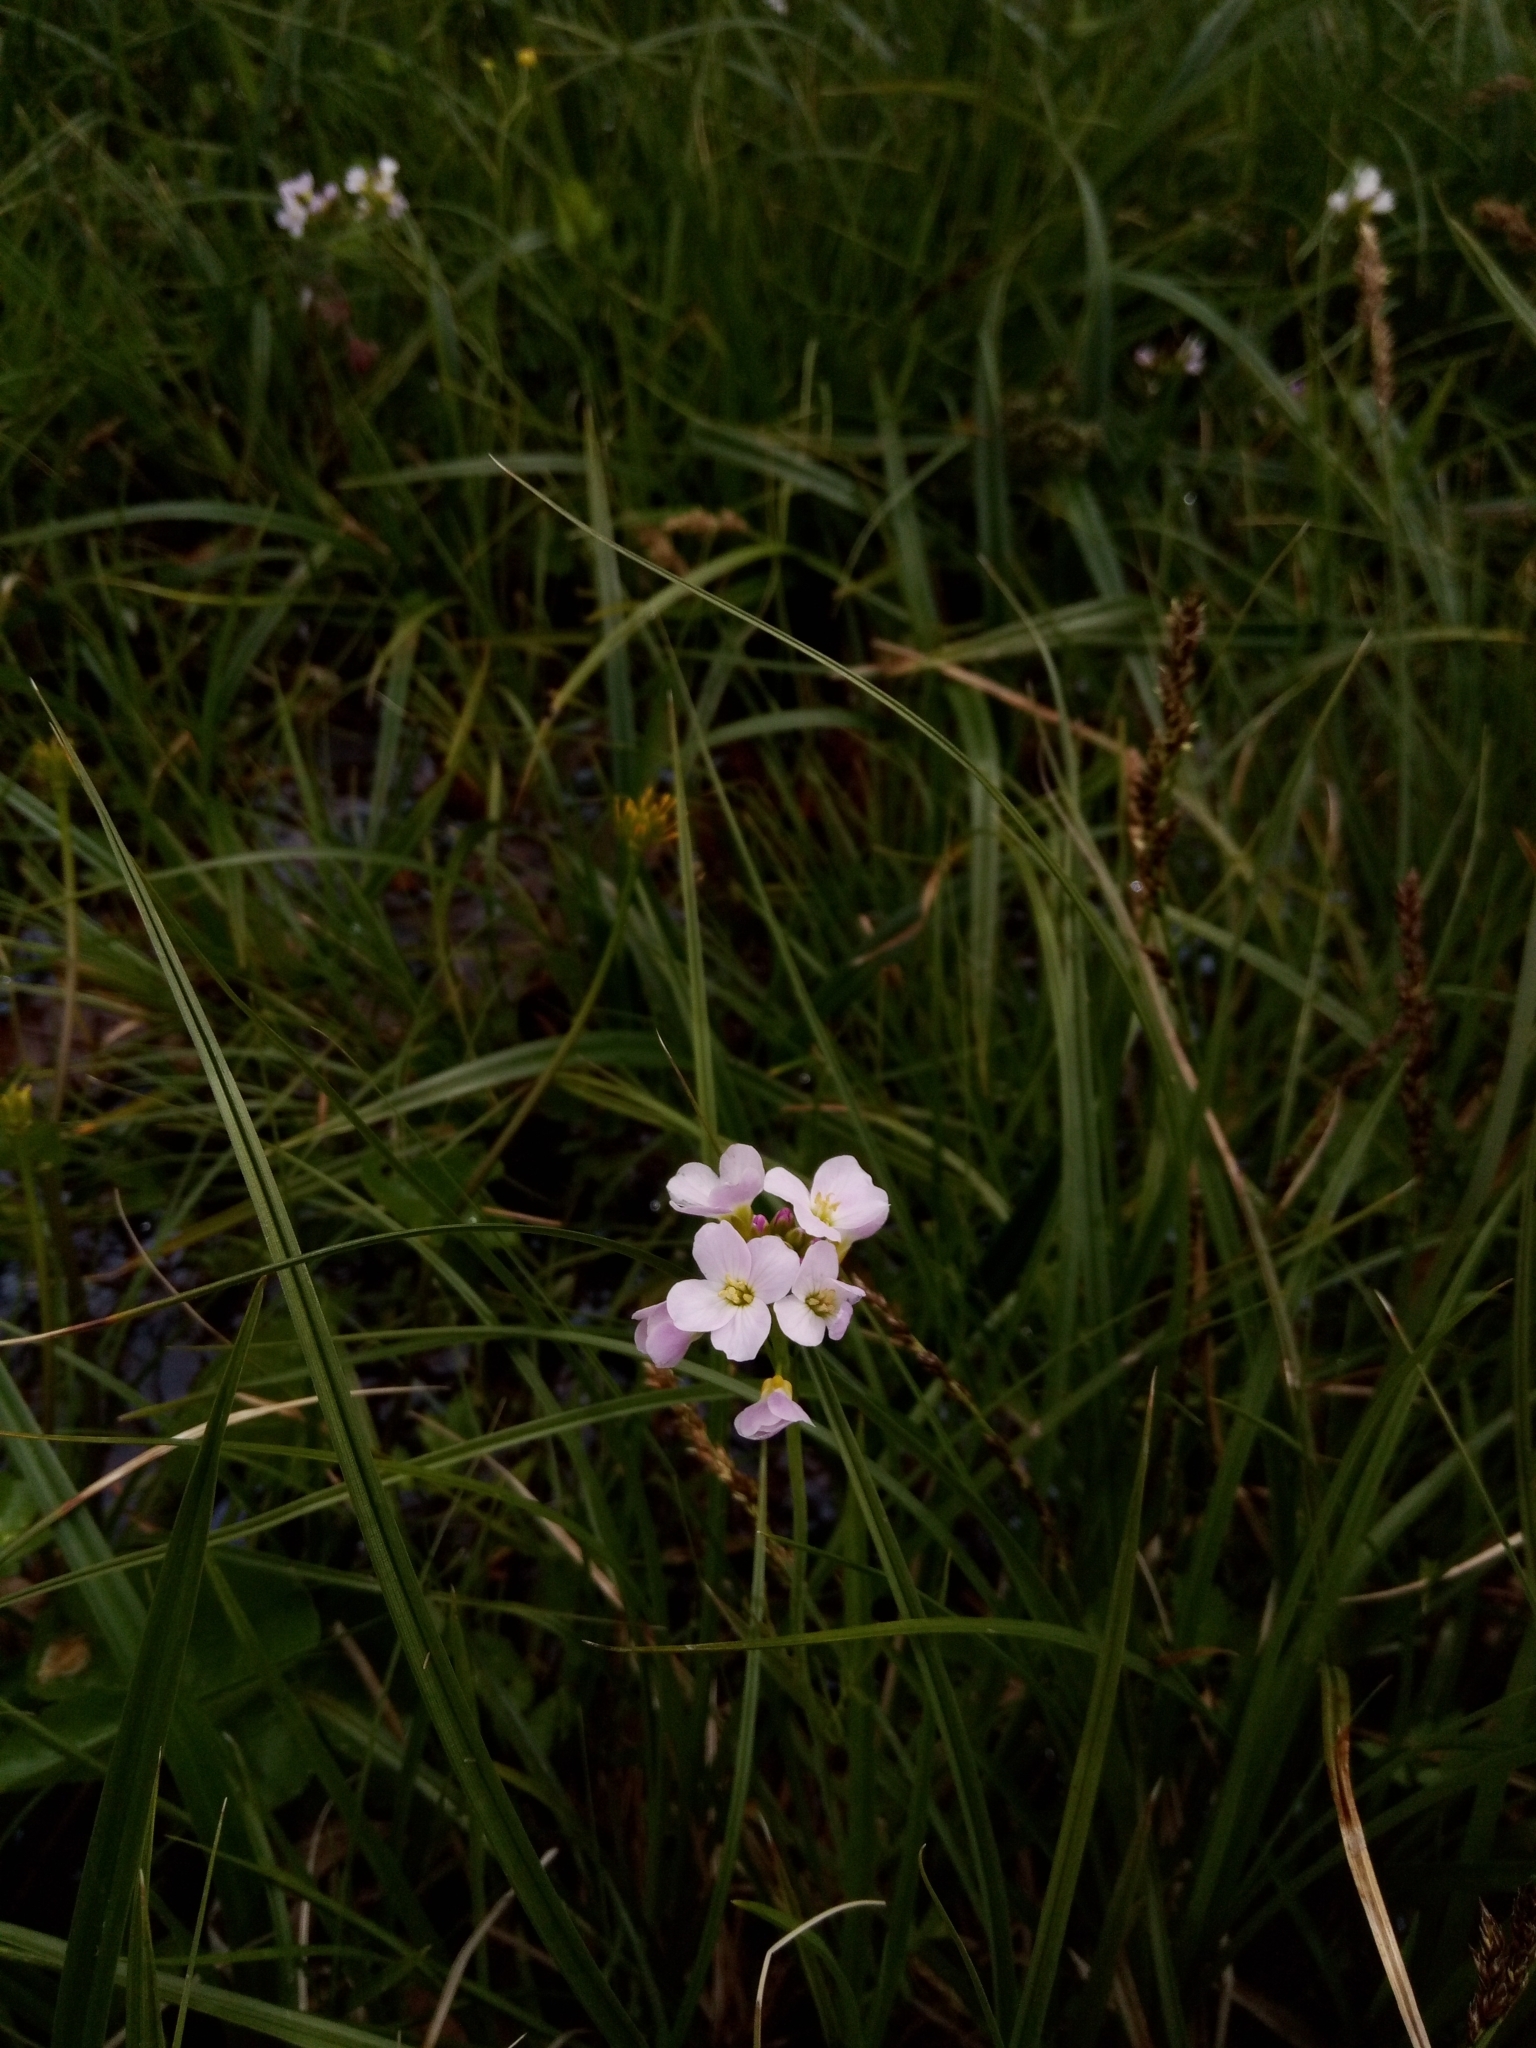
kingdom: Plantae
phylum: Tracheophyta
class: Magnoliopsida
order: Brassicales
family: Brassicaceae
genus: Cardamine
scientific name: Cardamine pratensis
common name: Cuckoo flower
